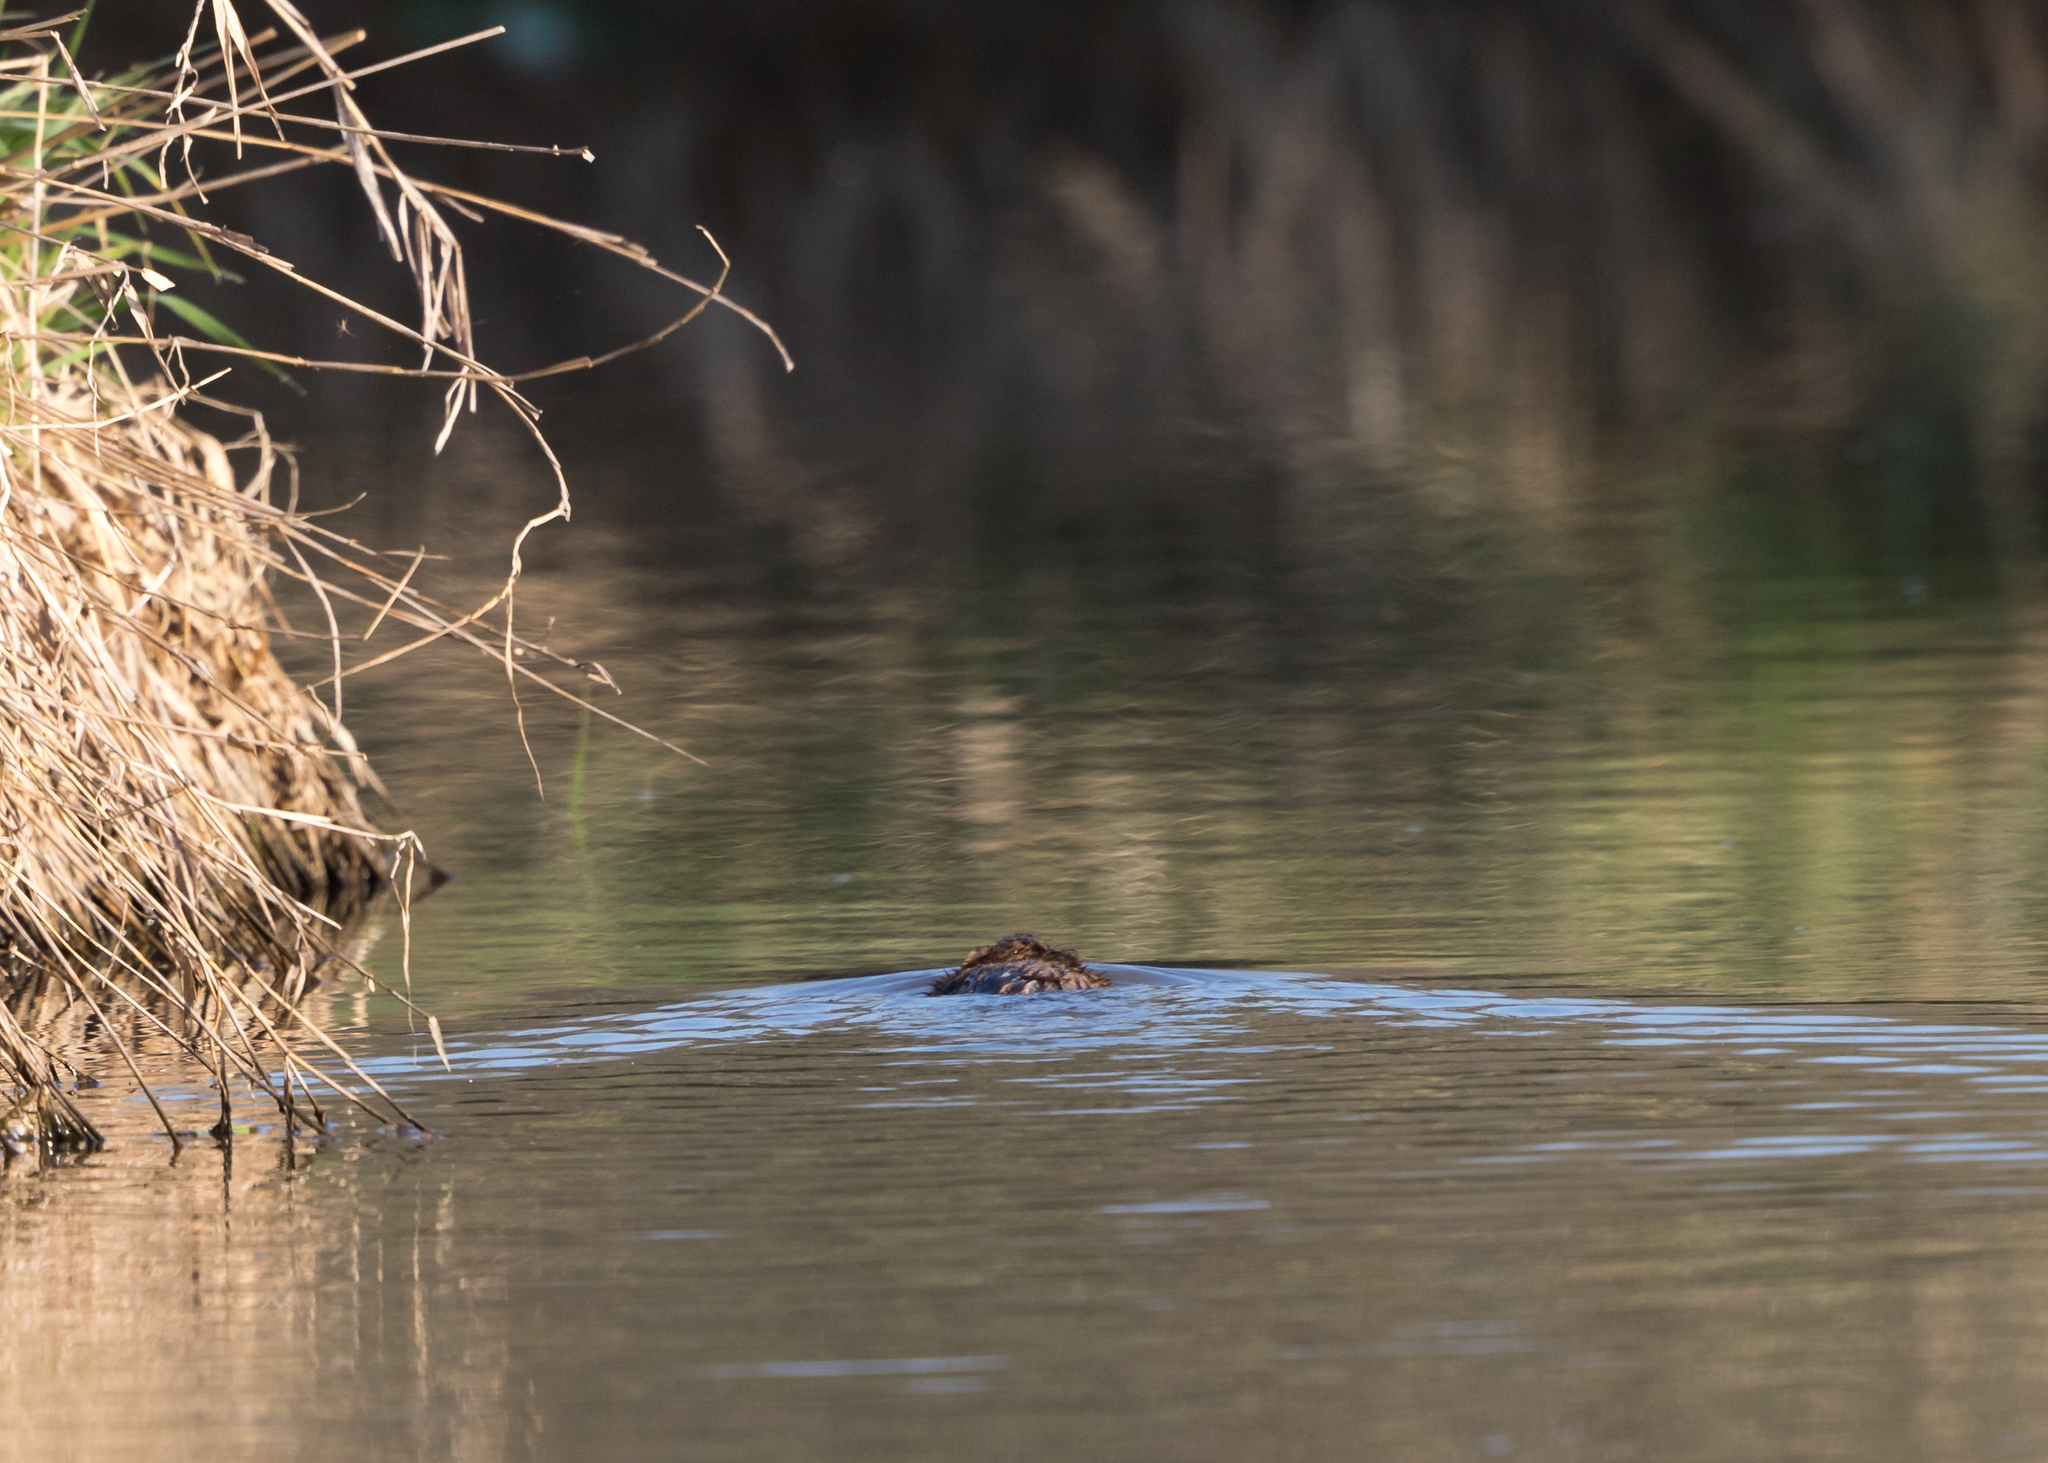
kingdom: Animalia
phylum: Chordata
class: Mammalia
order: Rodentia
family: Cricetidae
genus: Ondatra
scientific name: Ondatra zibethicus
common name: Muskrat
